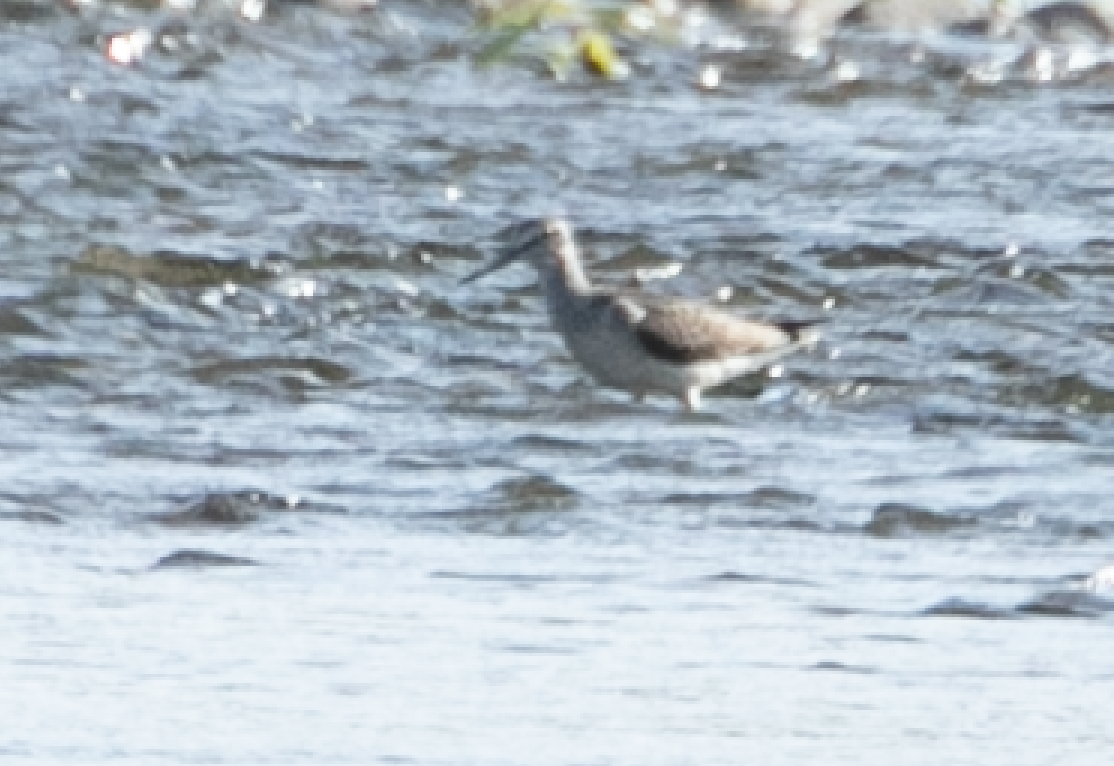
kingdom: Animalia
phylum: Chordata
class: Aves
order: Charadriiformes
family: Scolopacidae
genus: Tringa
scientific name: Tringa nebularia
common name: Common greenshank
